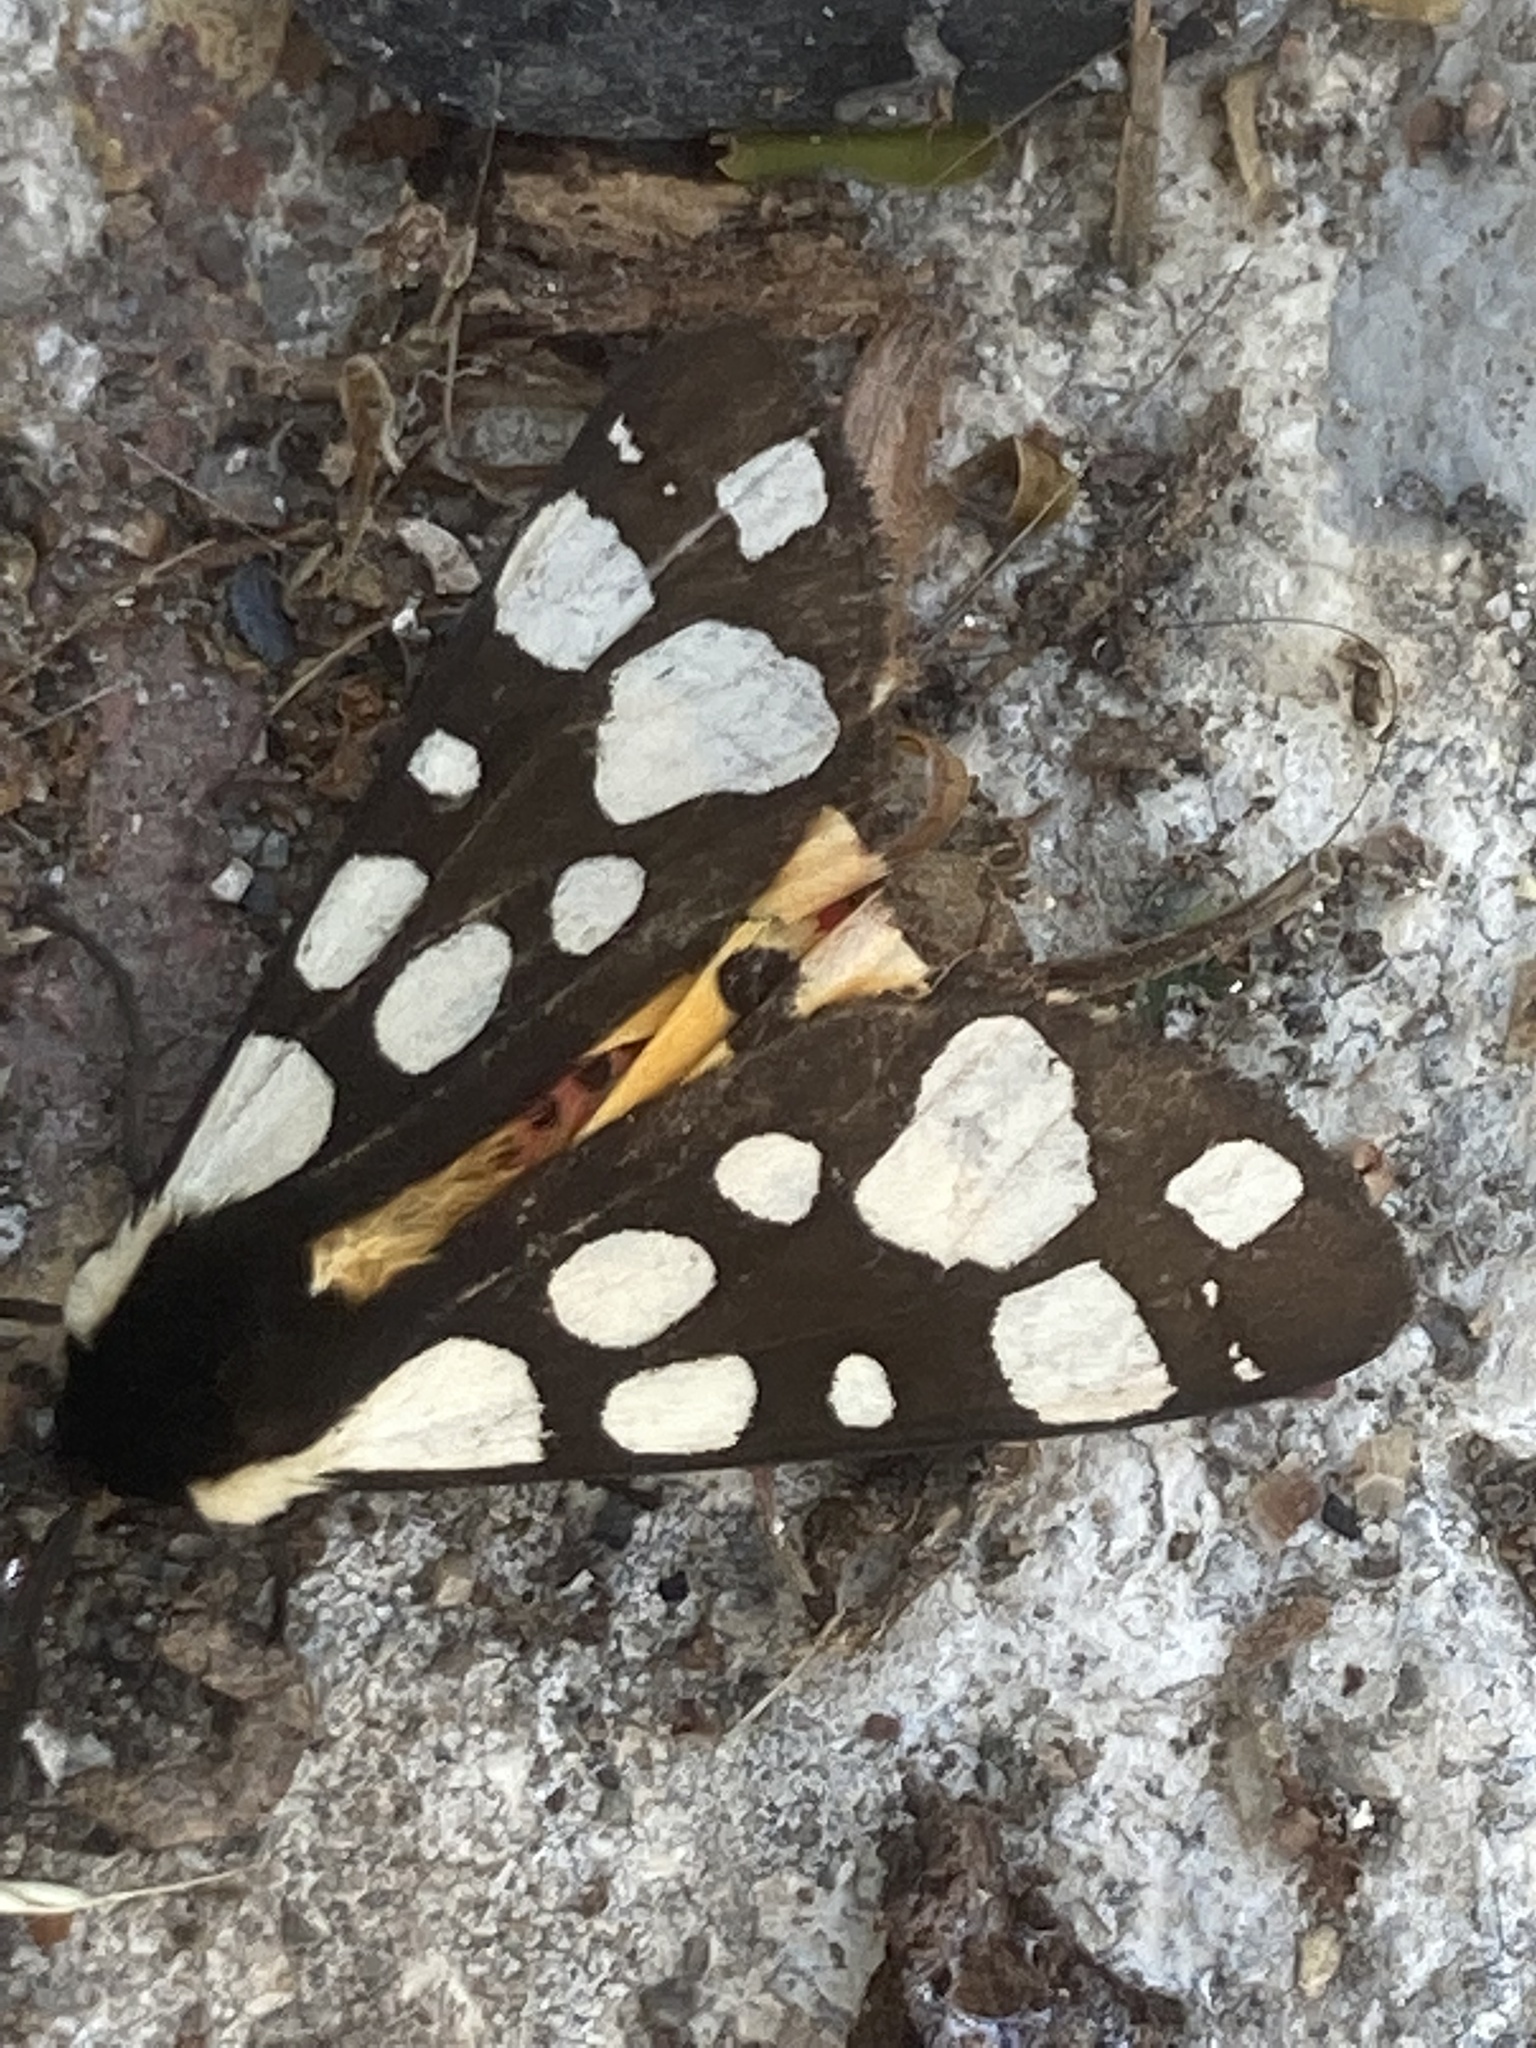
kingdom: Animalia
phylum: Arthropoda
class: Insecta
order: Lepidoptera
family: Erebidae
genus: Epicallia
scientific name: Epicallia villica
